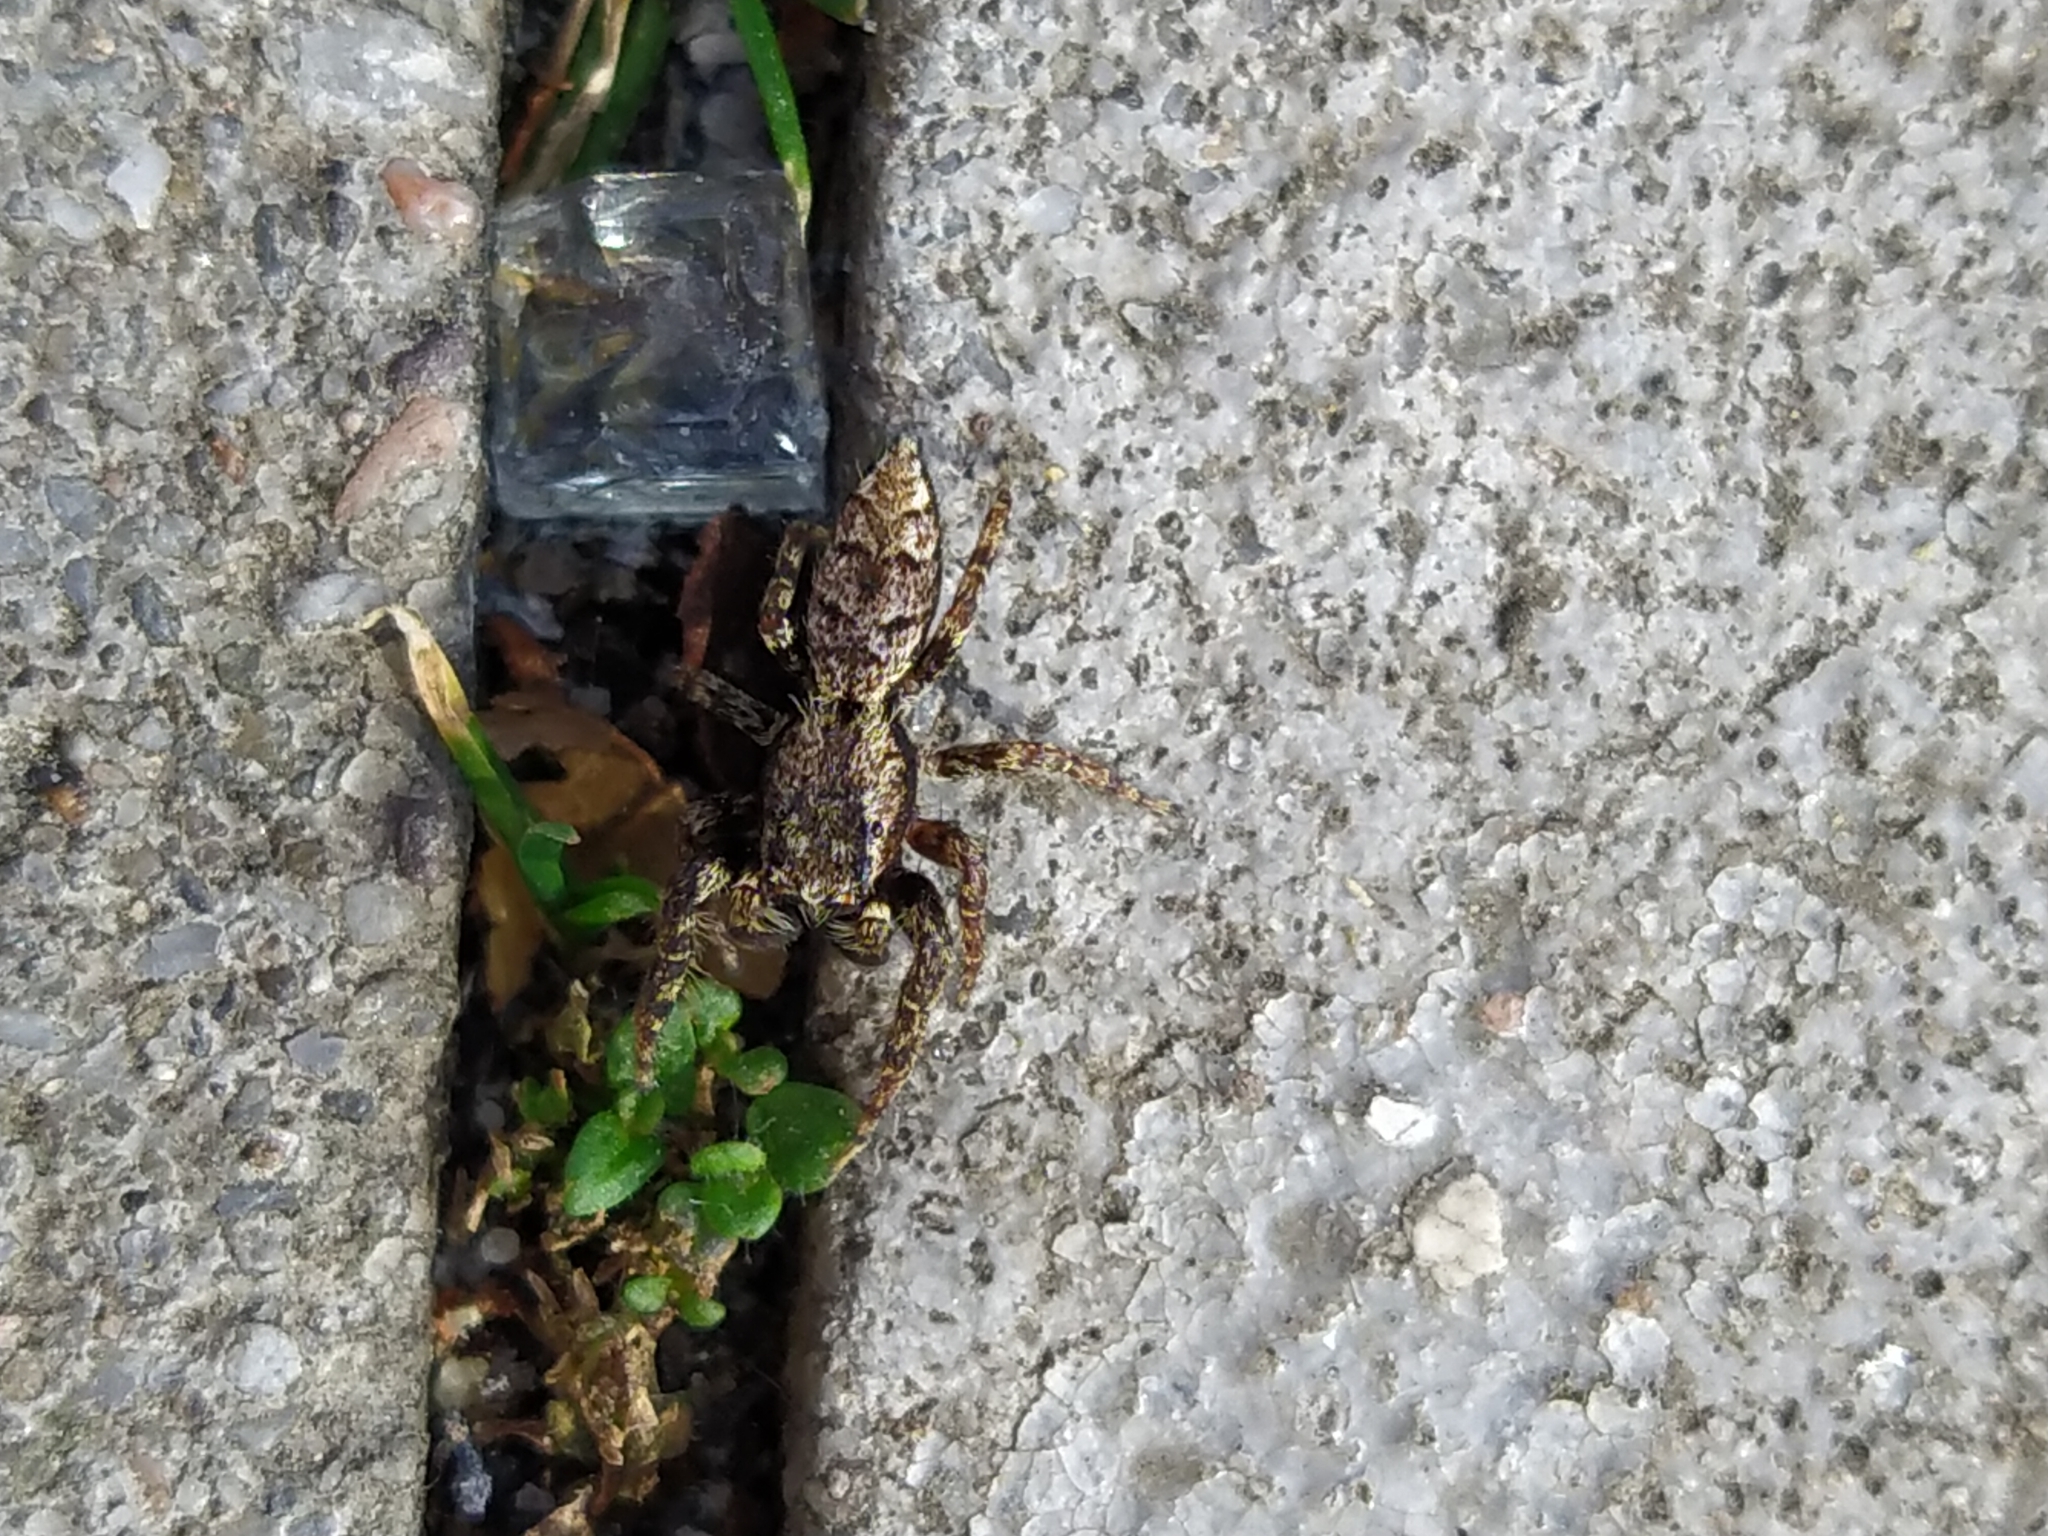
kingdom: Animalia
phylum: Arthropoda
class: Arachnida
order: Araneae
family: Salticidae
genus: Marpissa
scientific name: Marpissa muscosa
